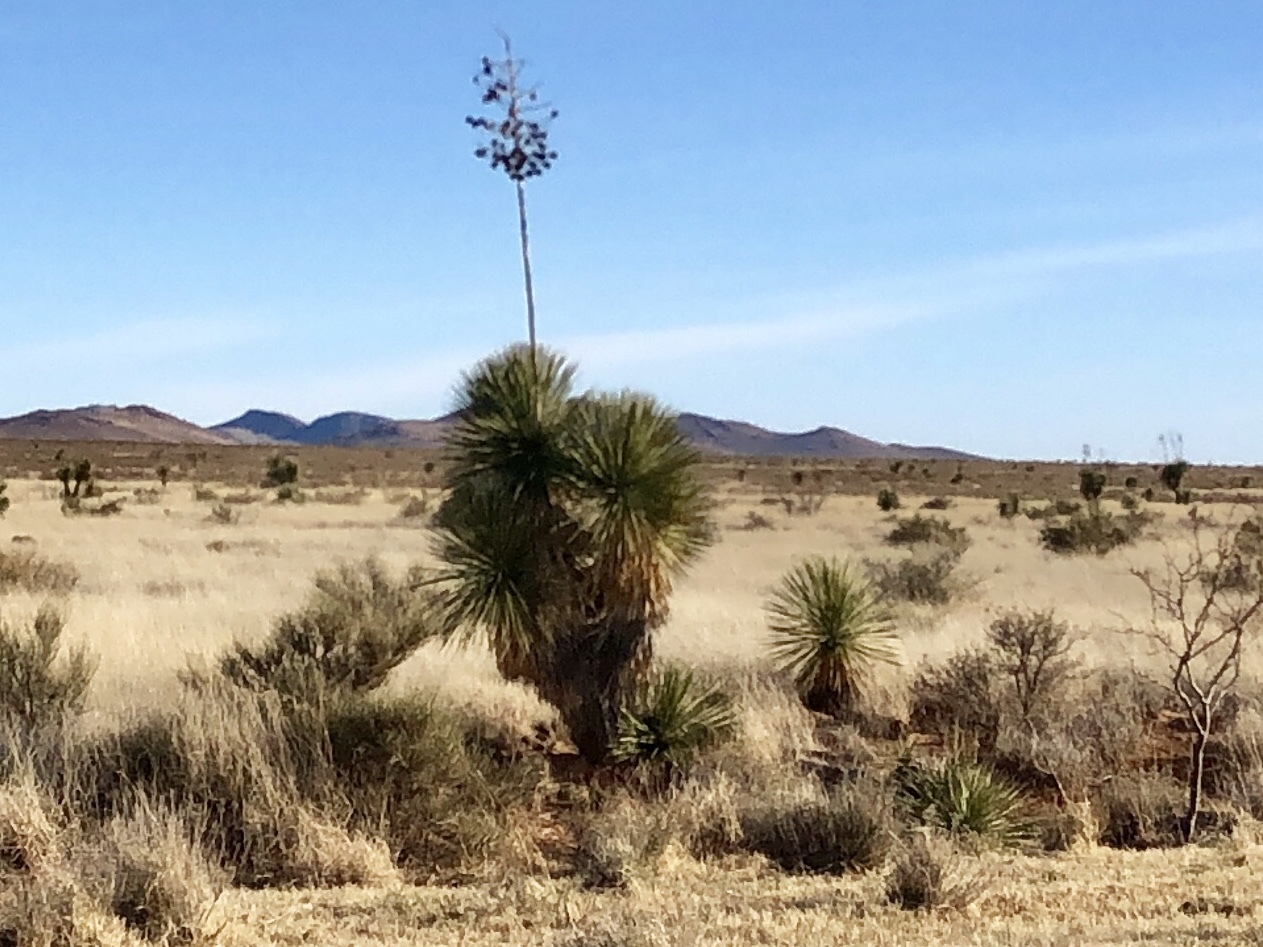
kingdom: Plantae
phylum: Tracheophyta
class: Liliopsida
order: Asparagales
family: Asparagaceae
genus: Yucca
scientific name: Yucca elata
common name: Palmella
